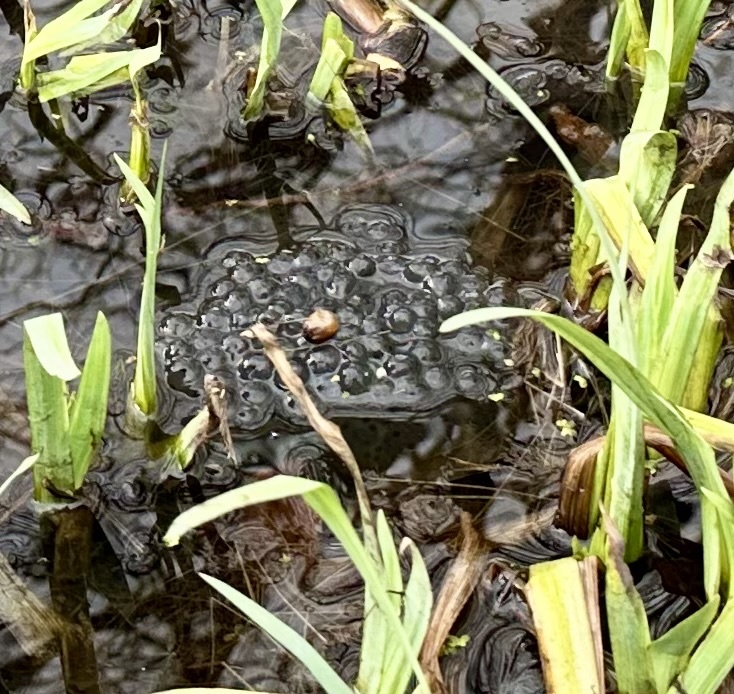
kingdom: Animalia
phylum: Chordata
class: Amphibia
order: Anura
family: Ranidae
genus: Rana
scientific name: Rana temporaria
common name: Common frog
